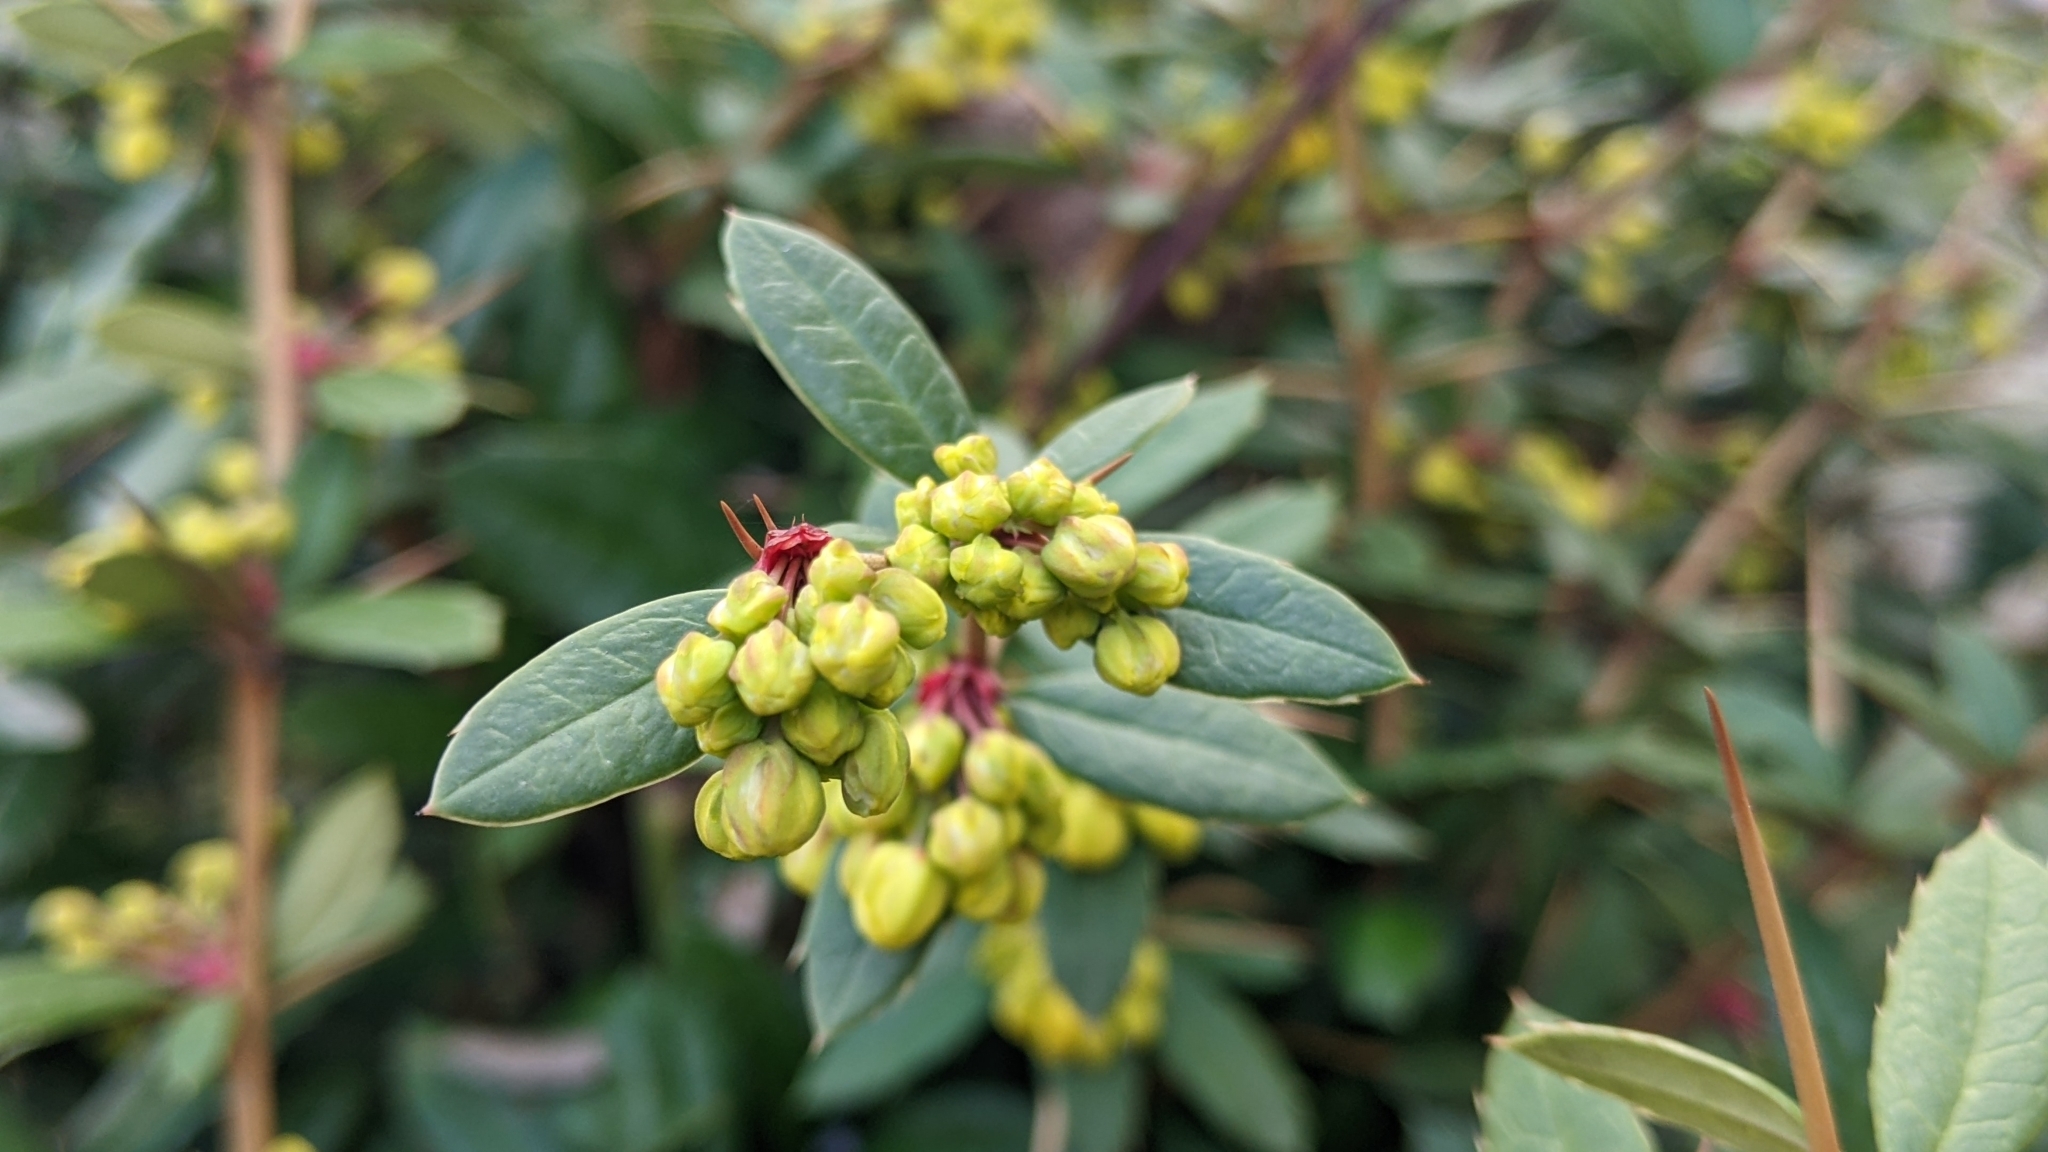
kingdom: Plantae
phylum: Tracheophyta
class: Magnoliopsida
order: Ranunculales
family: Berberidaceae
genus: Berberis
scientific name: Berberis julianae
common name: Wintergreen barberry
